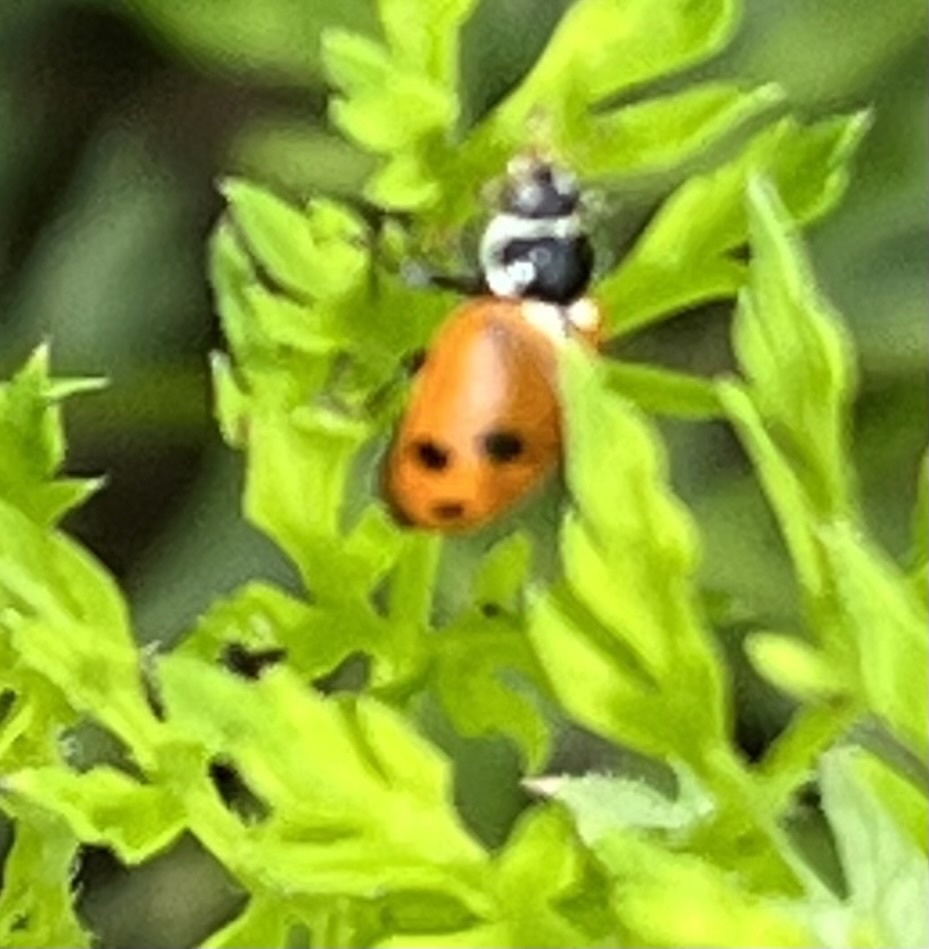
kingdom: Animalia
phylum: Arthropoda
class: Insecta
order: Coleoptera
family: Coccinellidae
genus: Hippodamia
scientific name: Hippodamia variegata
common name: Ladybird beetle
